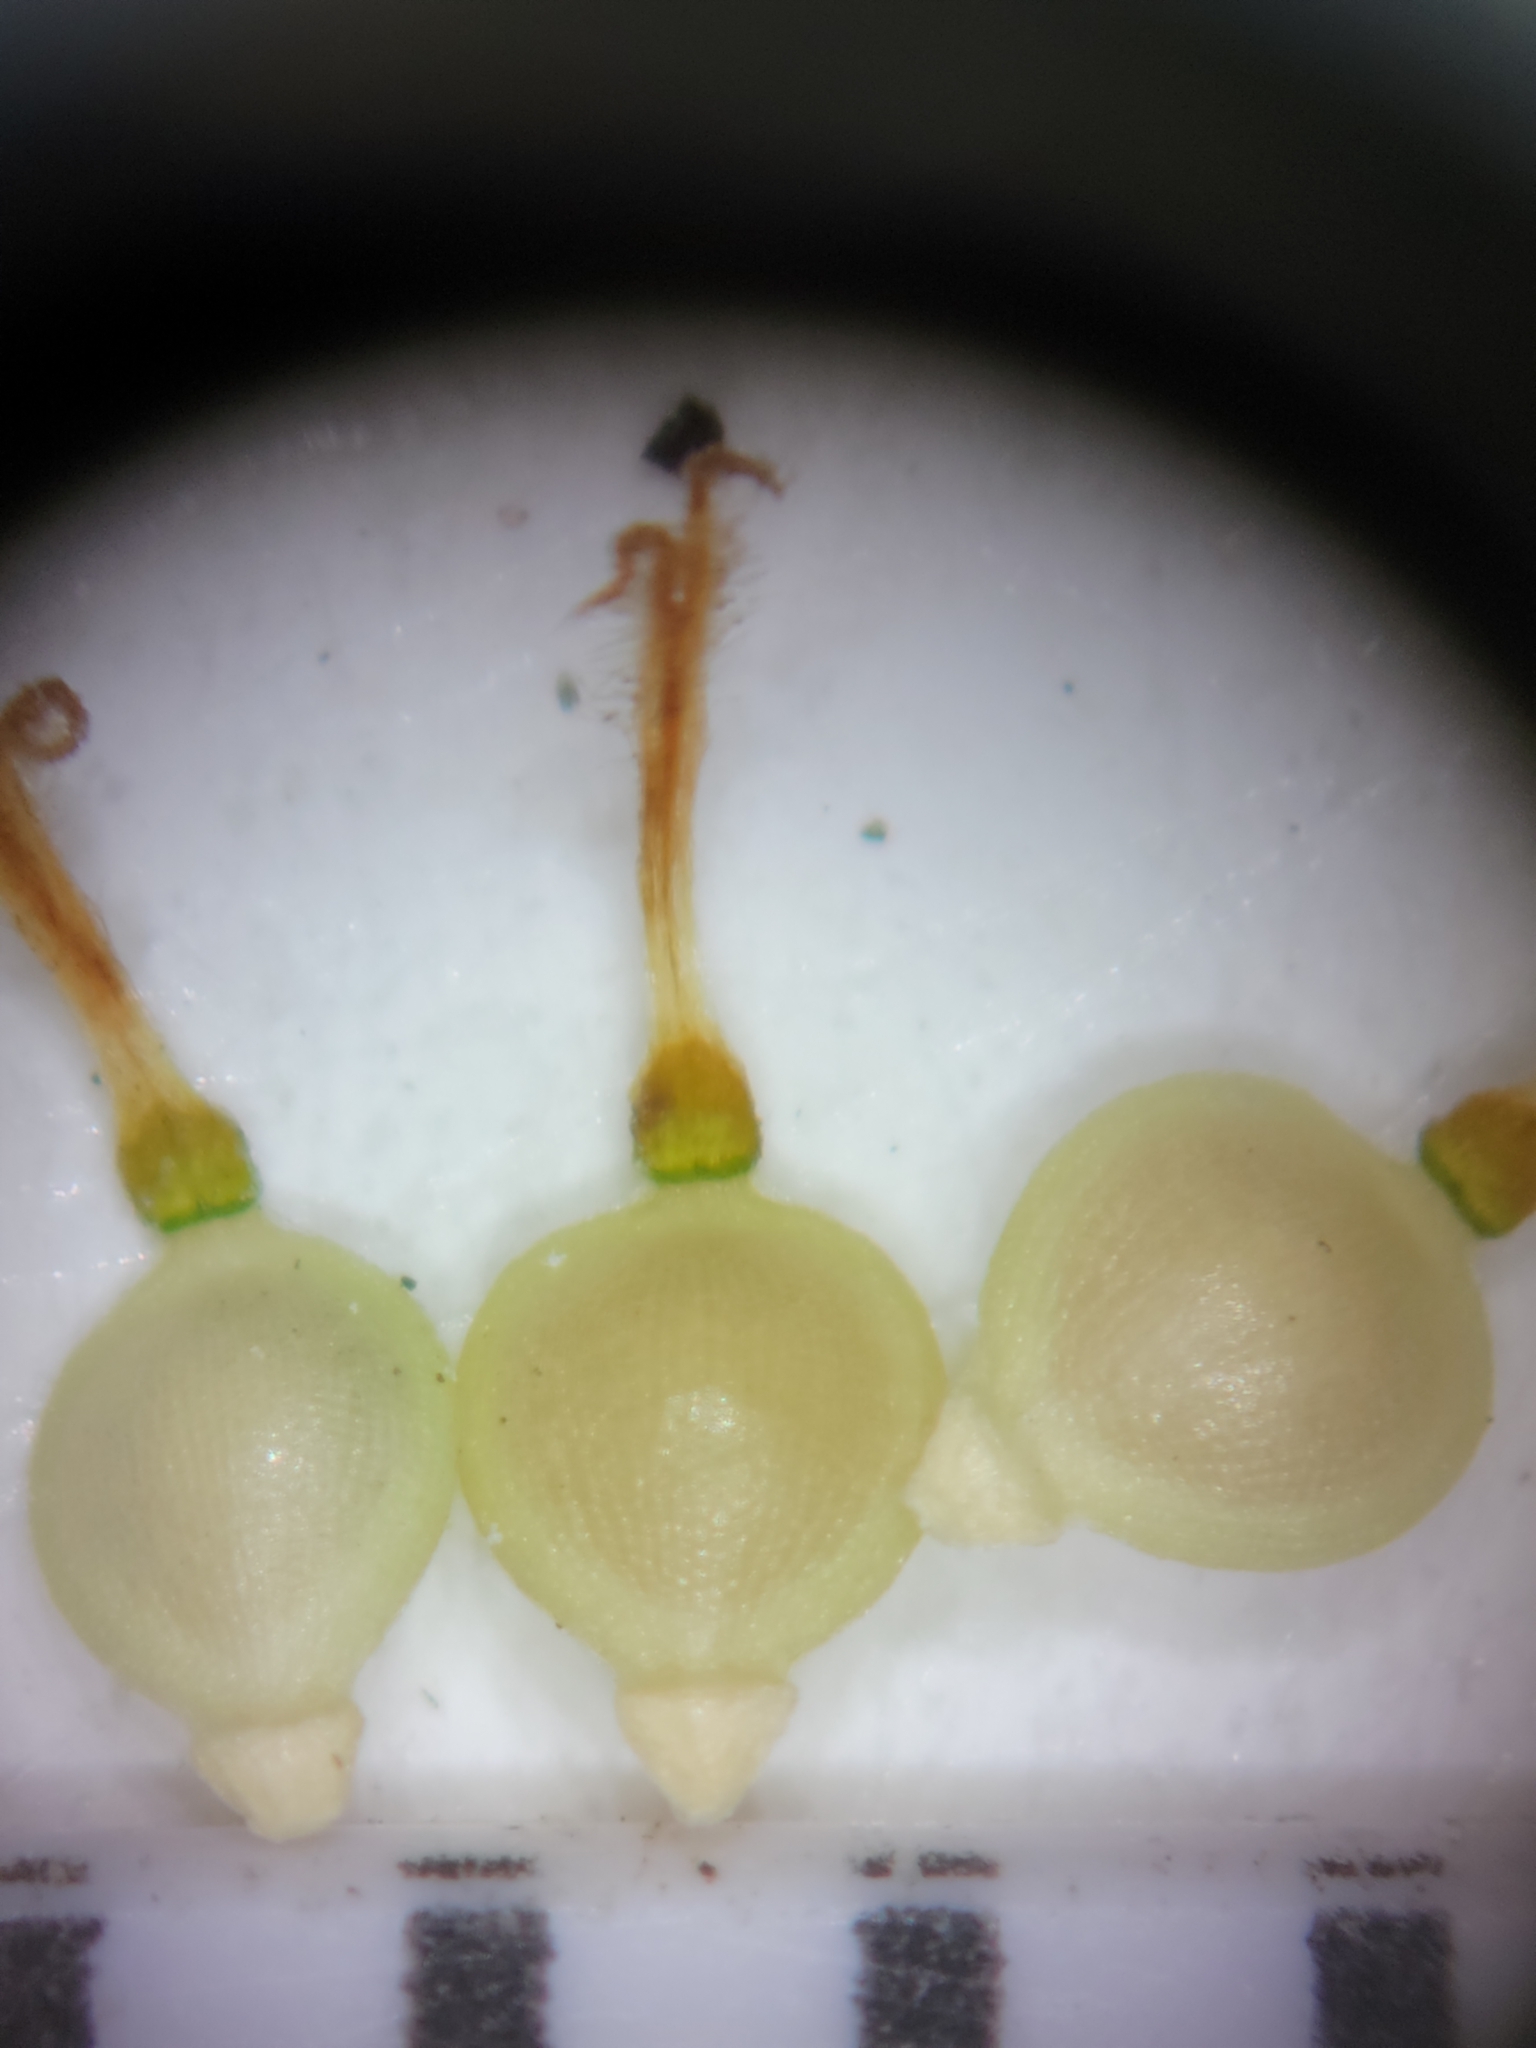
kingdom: Plantae
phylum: Tracheophyta
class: Liliopsida
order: Poales
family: Cyperaceae
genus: Fimbristylis
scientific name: Fimbristylis schoenoides
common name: Ditch fimbry
